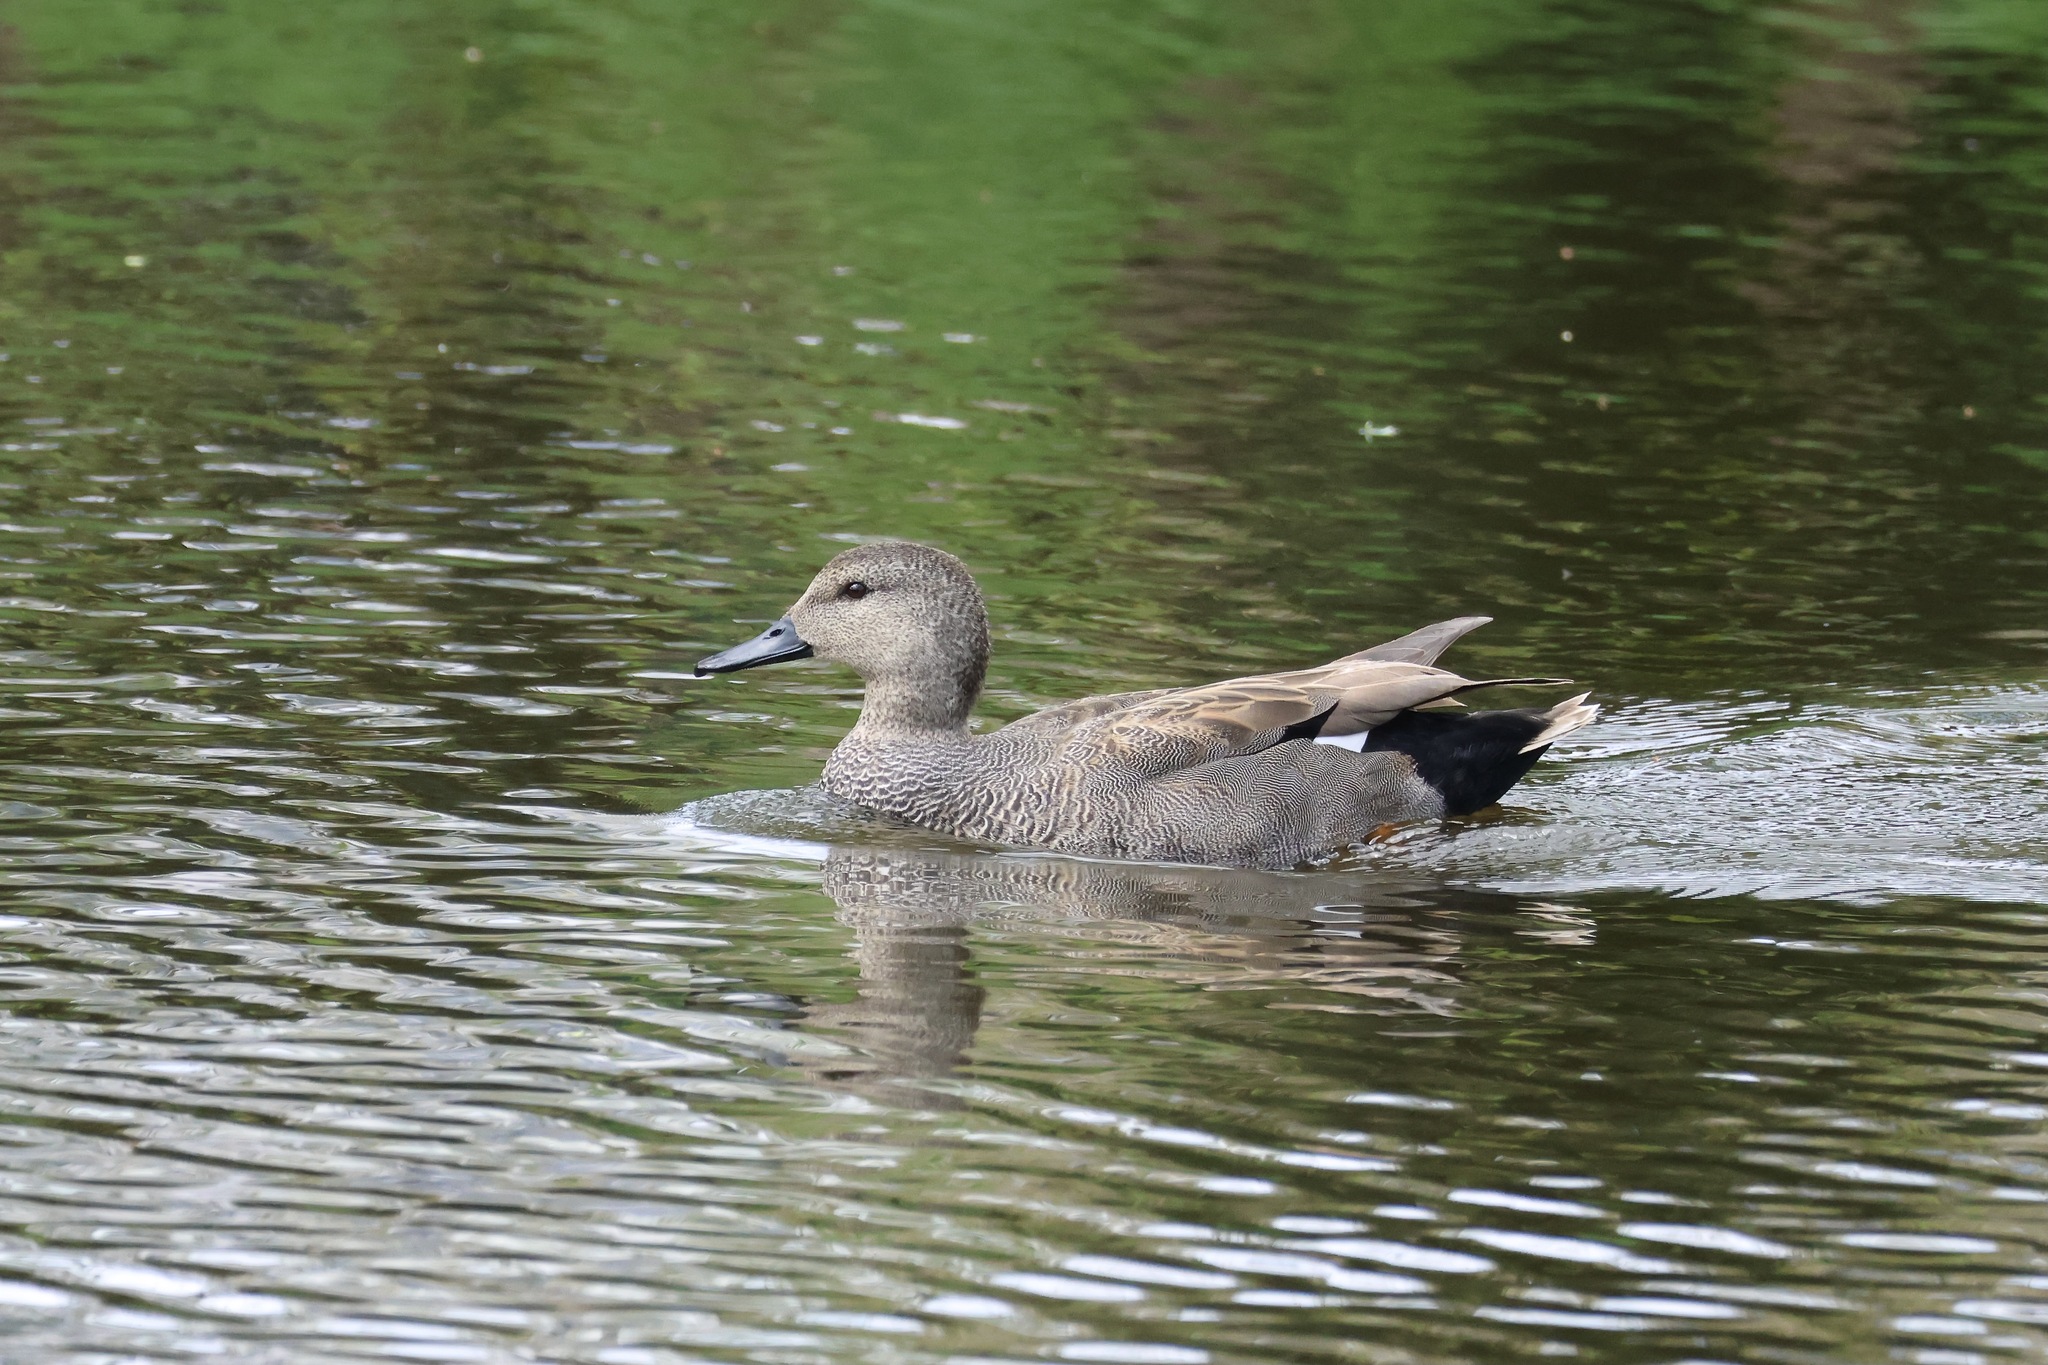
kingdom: Animalia
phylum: Chordata
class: Aves
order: Anseriformes
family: Anatidae
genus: Mareca
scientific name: Mareca strepera
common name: Gadwall
